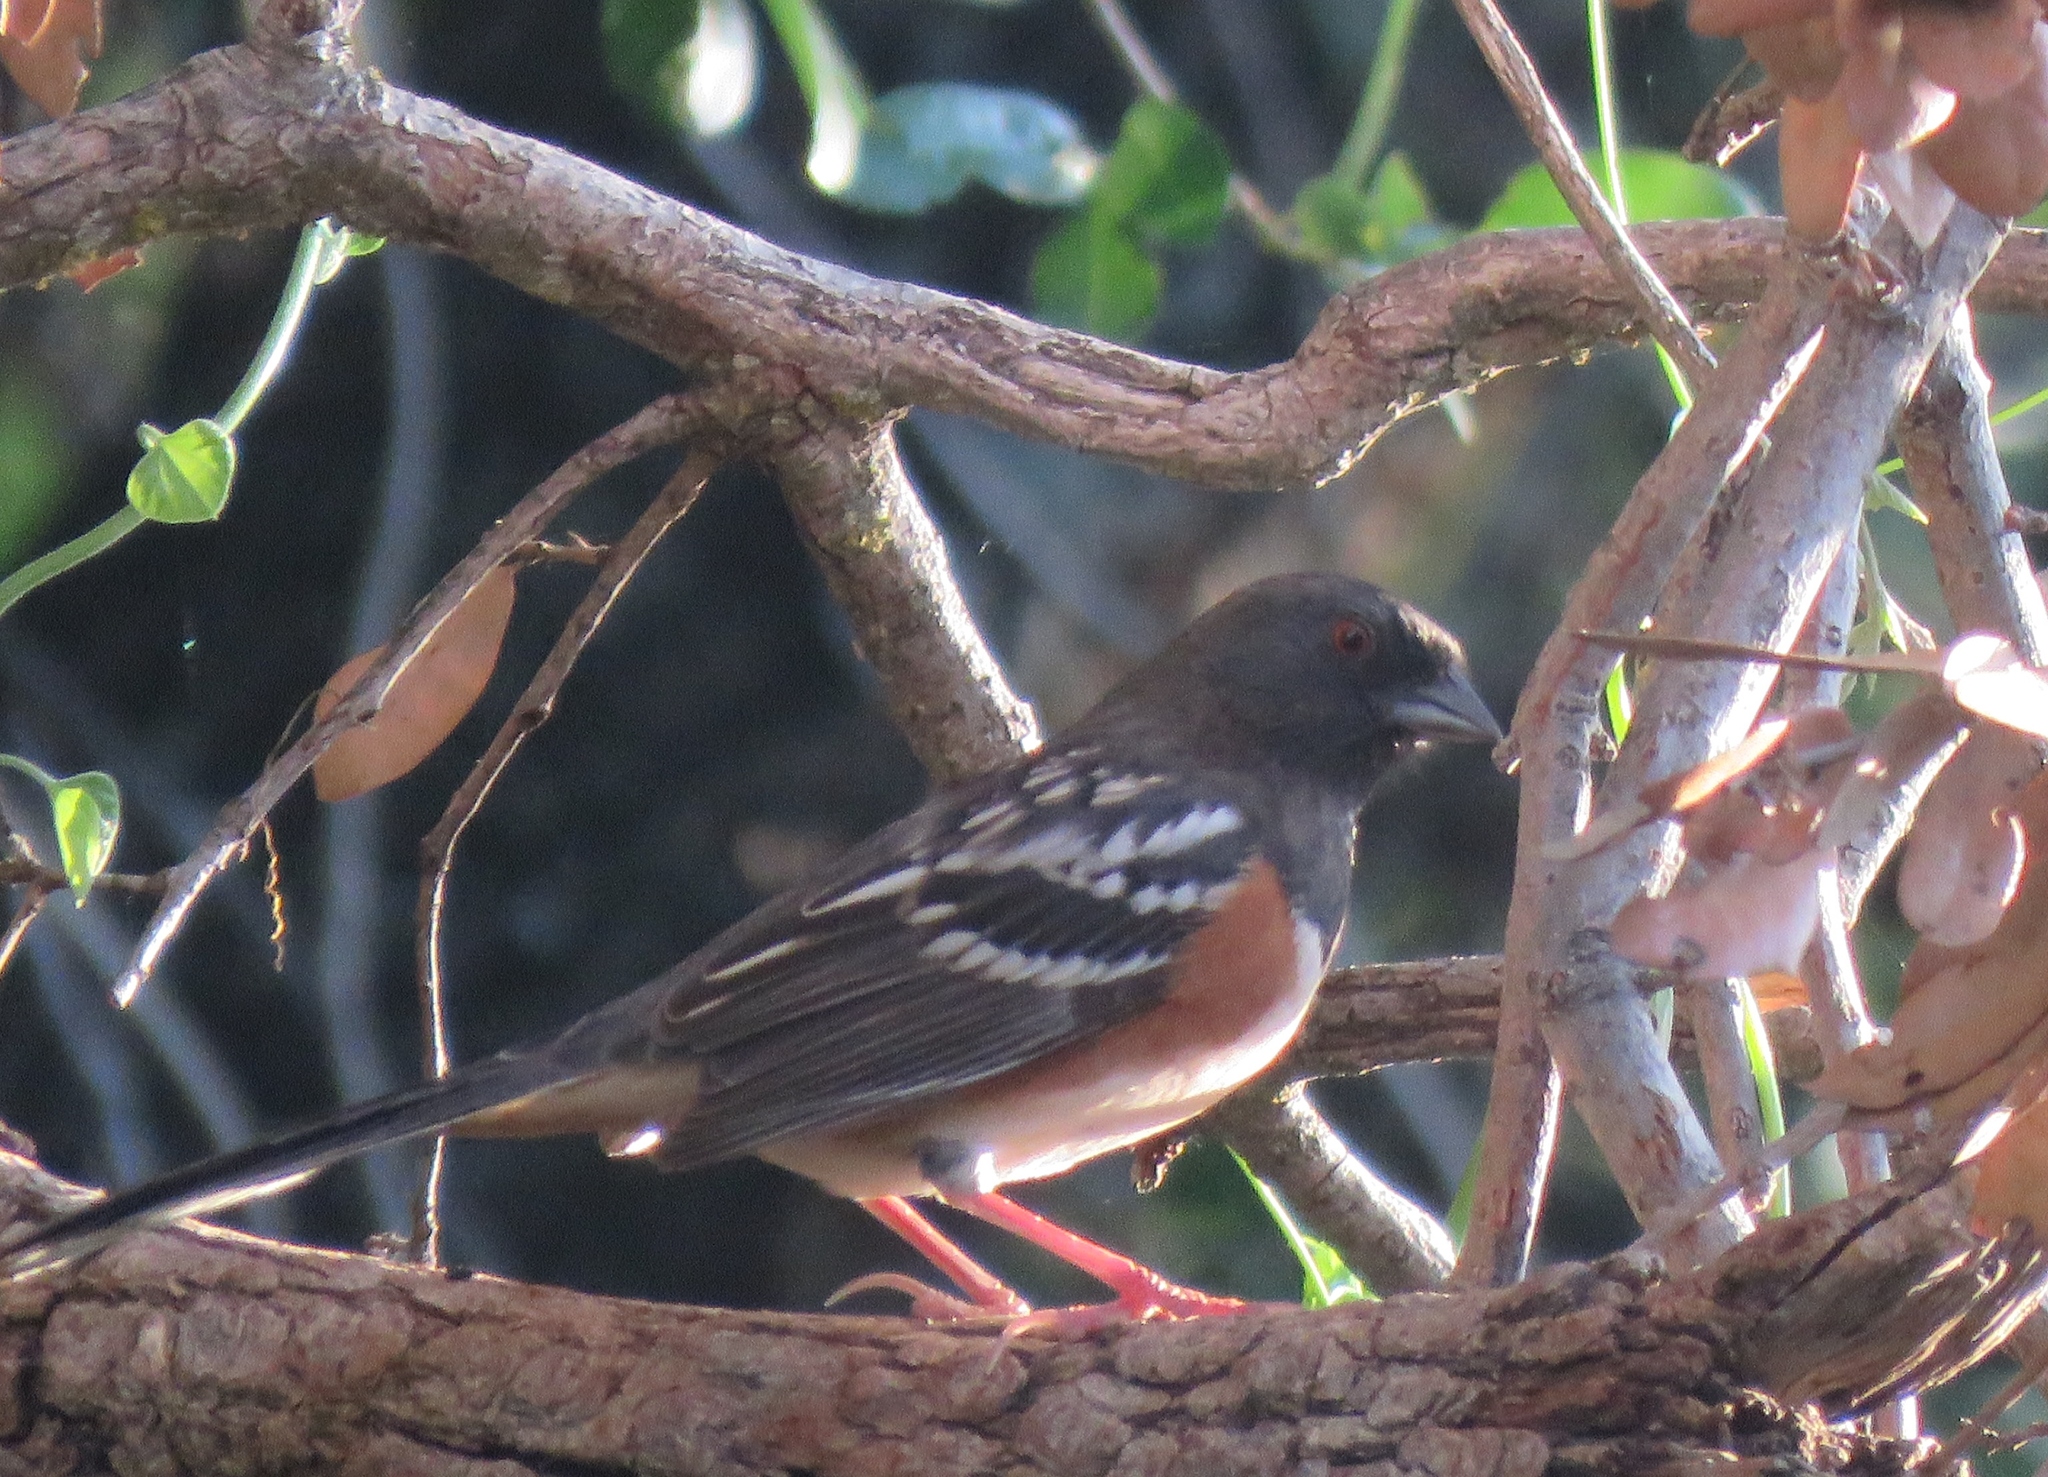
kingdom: Animalia
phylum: Chordata
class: Aves
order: Passeriformes
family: Passerellidae
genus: Pipilo
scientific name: Pipilo maculatus
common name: Spotted towhee
